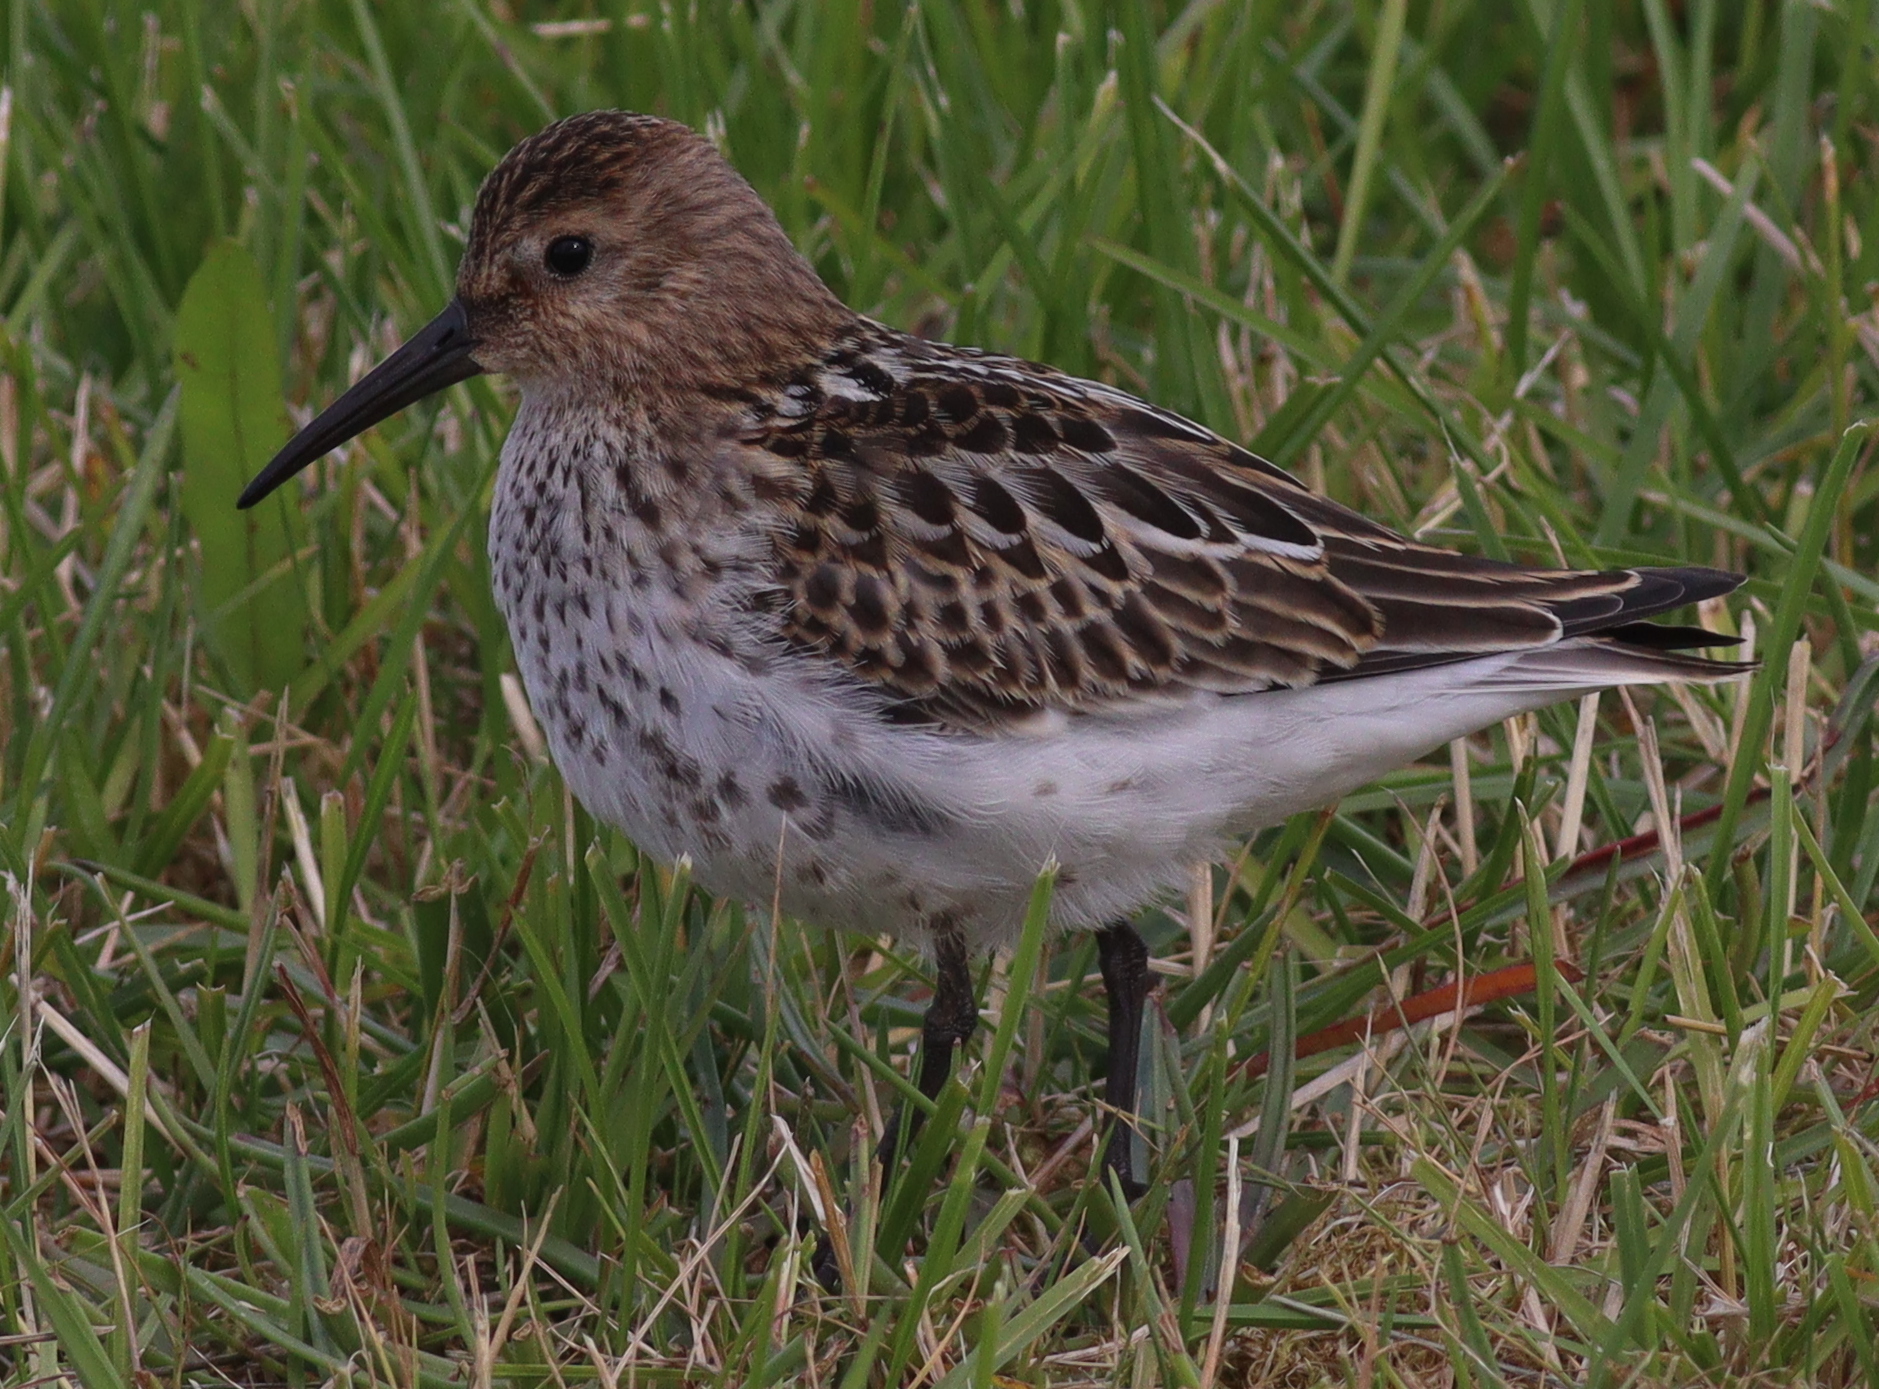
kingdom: Animalia
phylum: Chordata
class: Aves
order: Charadriiformes
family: Scolopacidae
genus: Calidris
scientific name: Calidris alpina
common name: Dunlin
